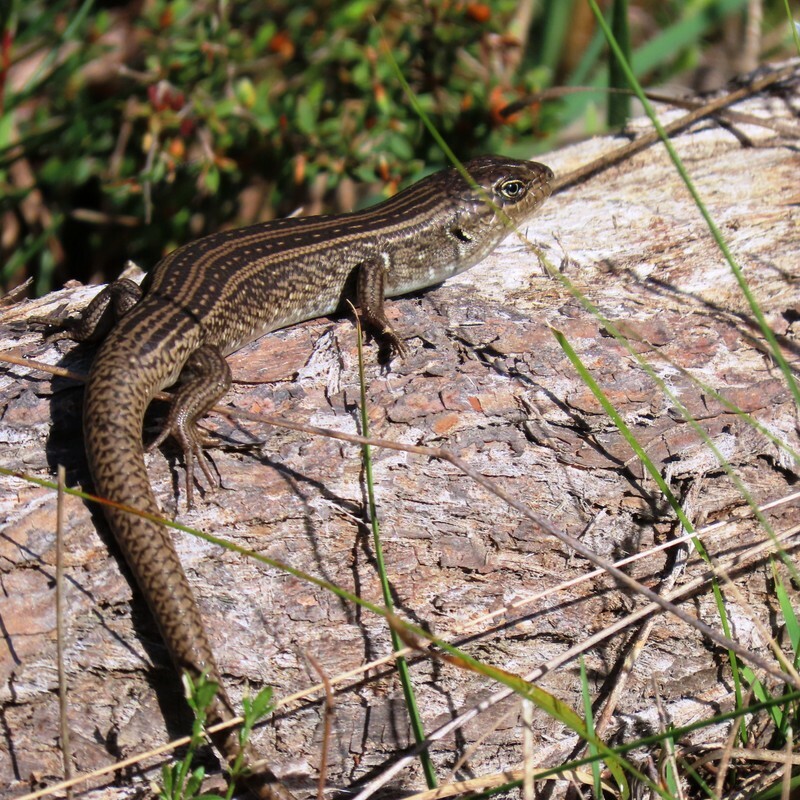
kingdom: Animalia
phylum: Chordata
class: Squamata
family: Scincidae
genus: Liopholis
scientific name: Liopholis whitii
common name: White's rock-skink
